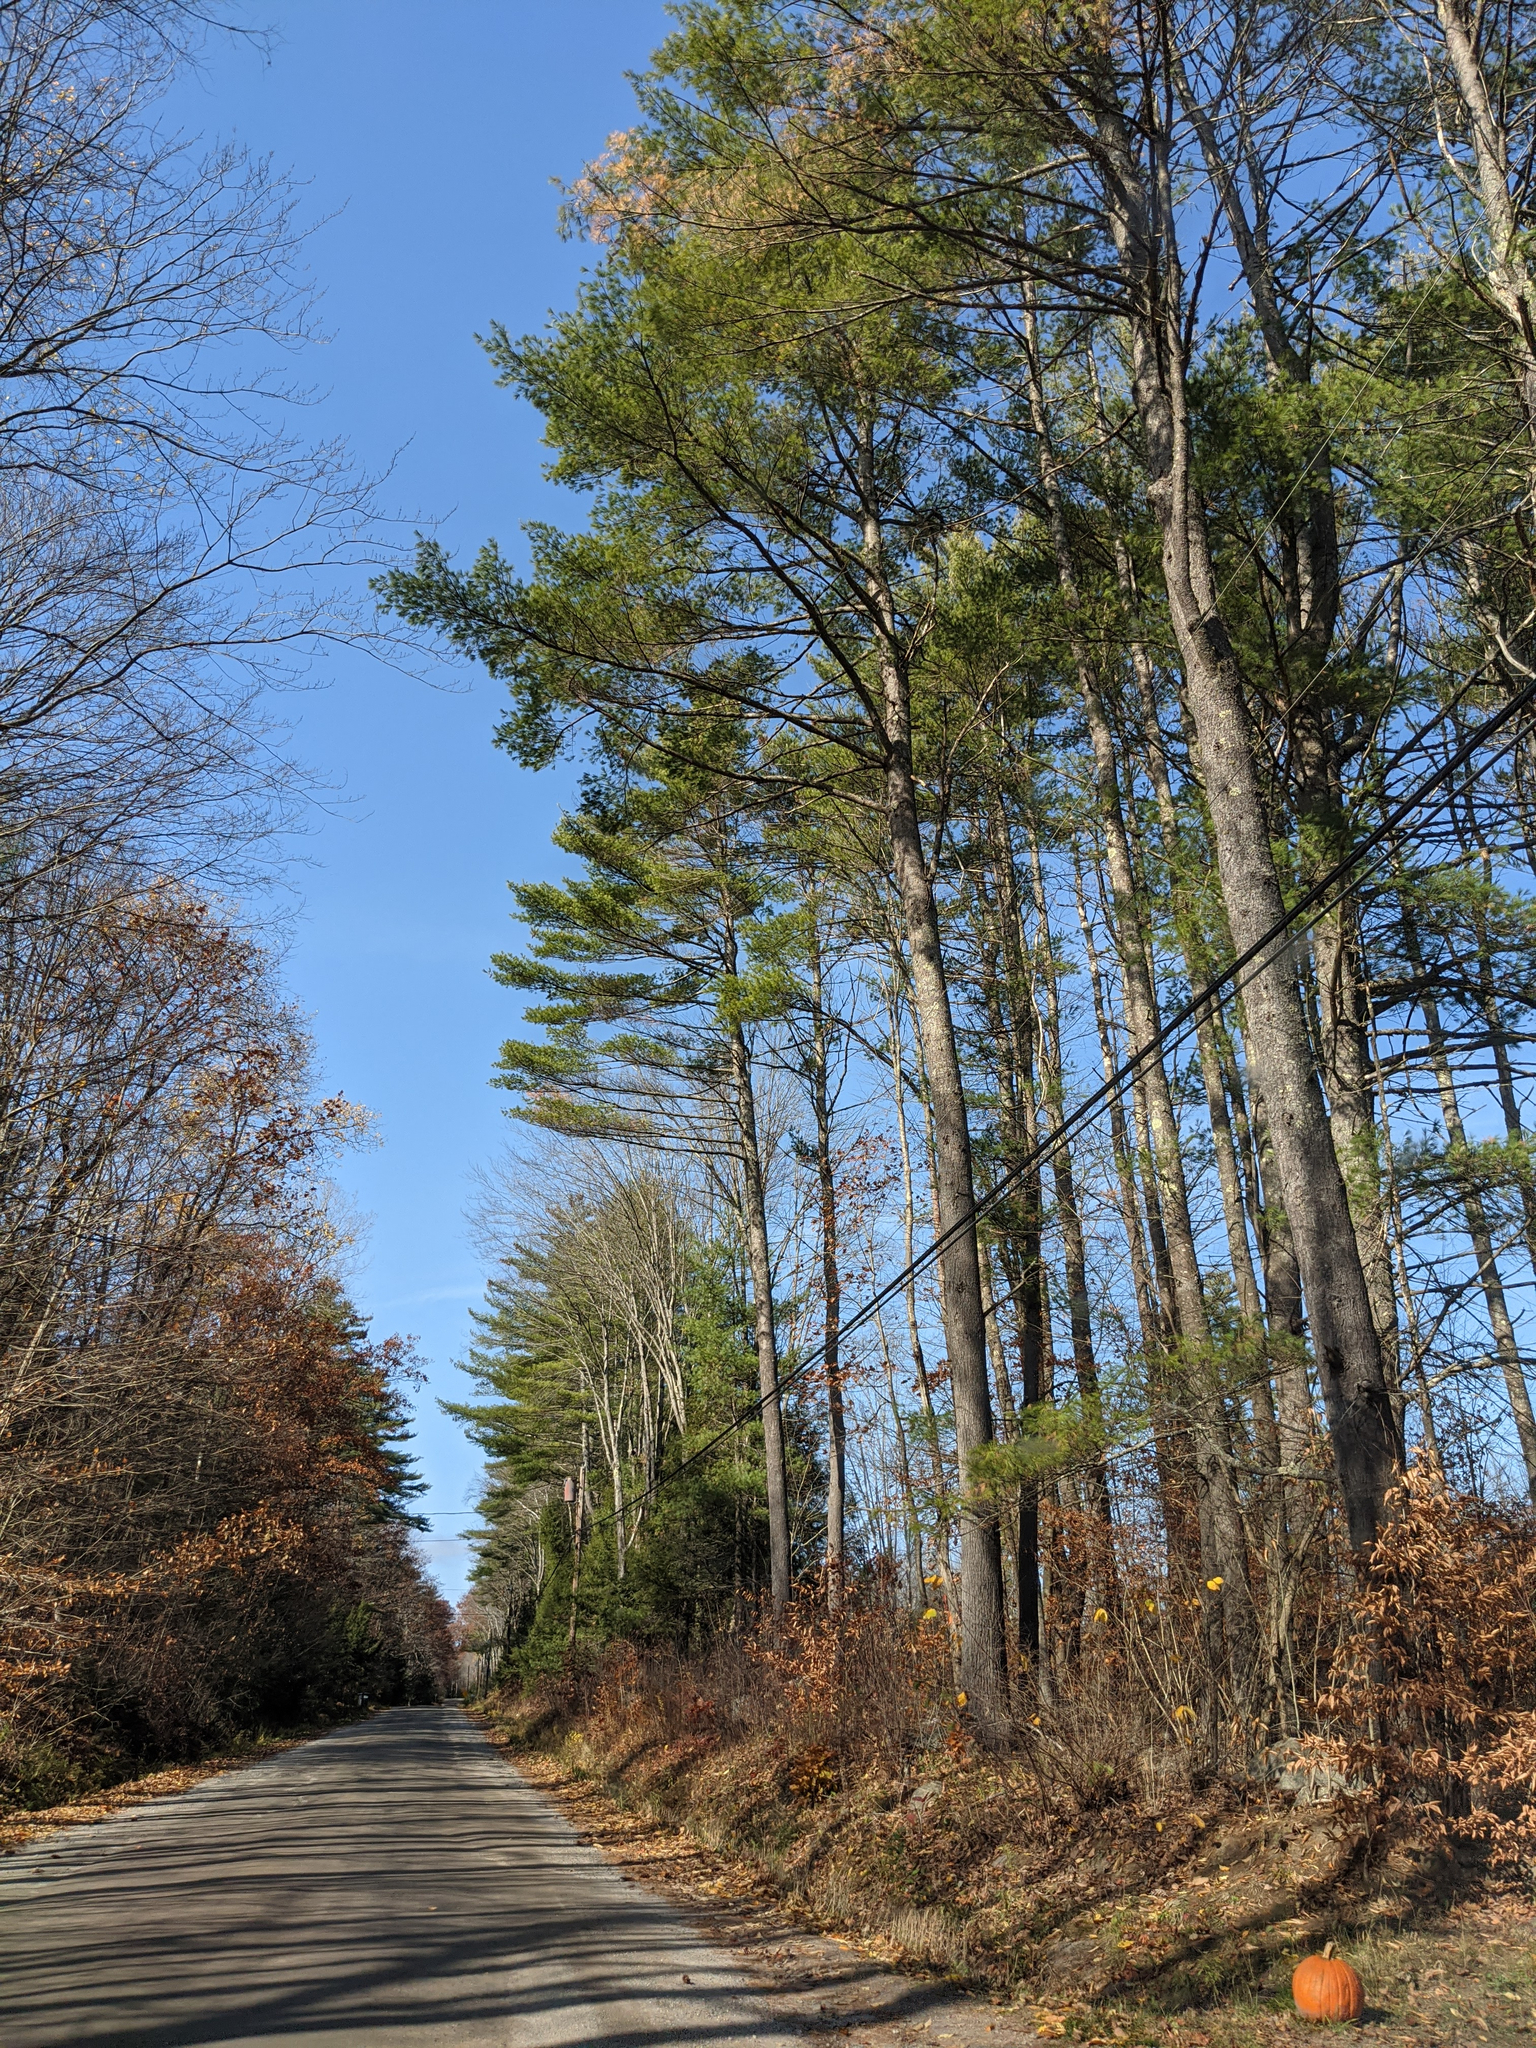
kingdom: Plantae
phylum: Tracheophyta
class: Pinopsida
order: Pinales
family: Pinaceae
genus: Pinus
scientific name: Pinus strobus
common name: Weymouth pine
